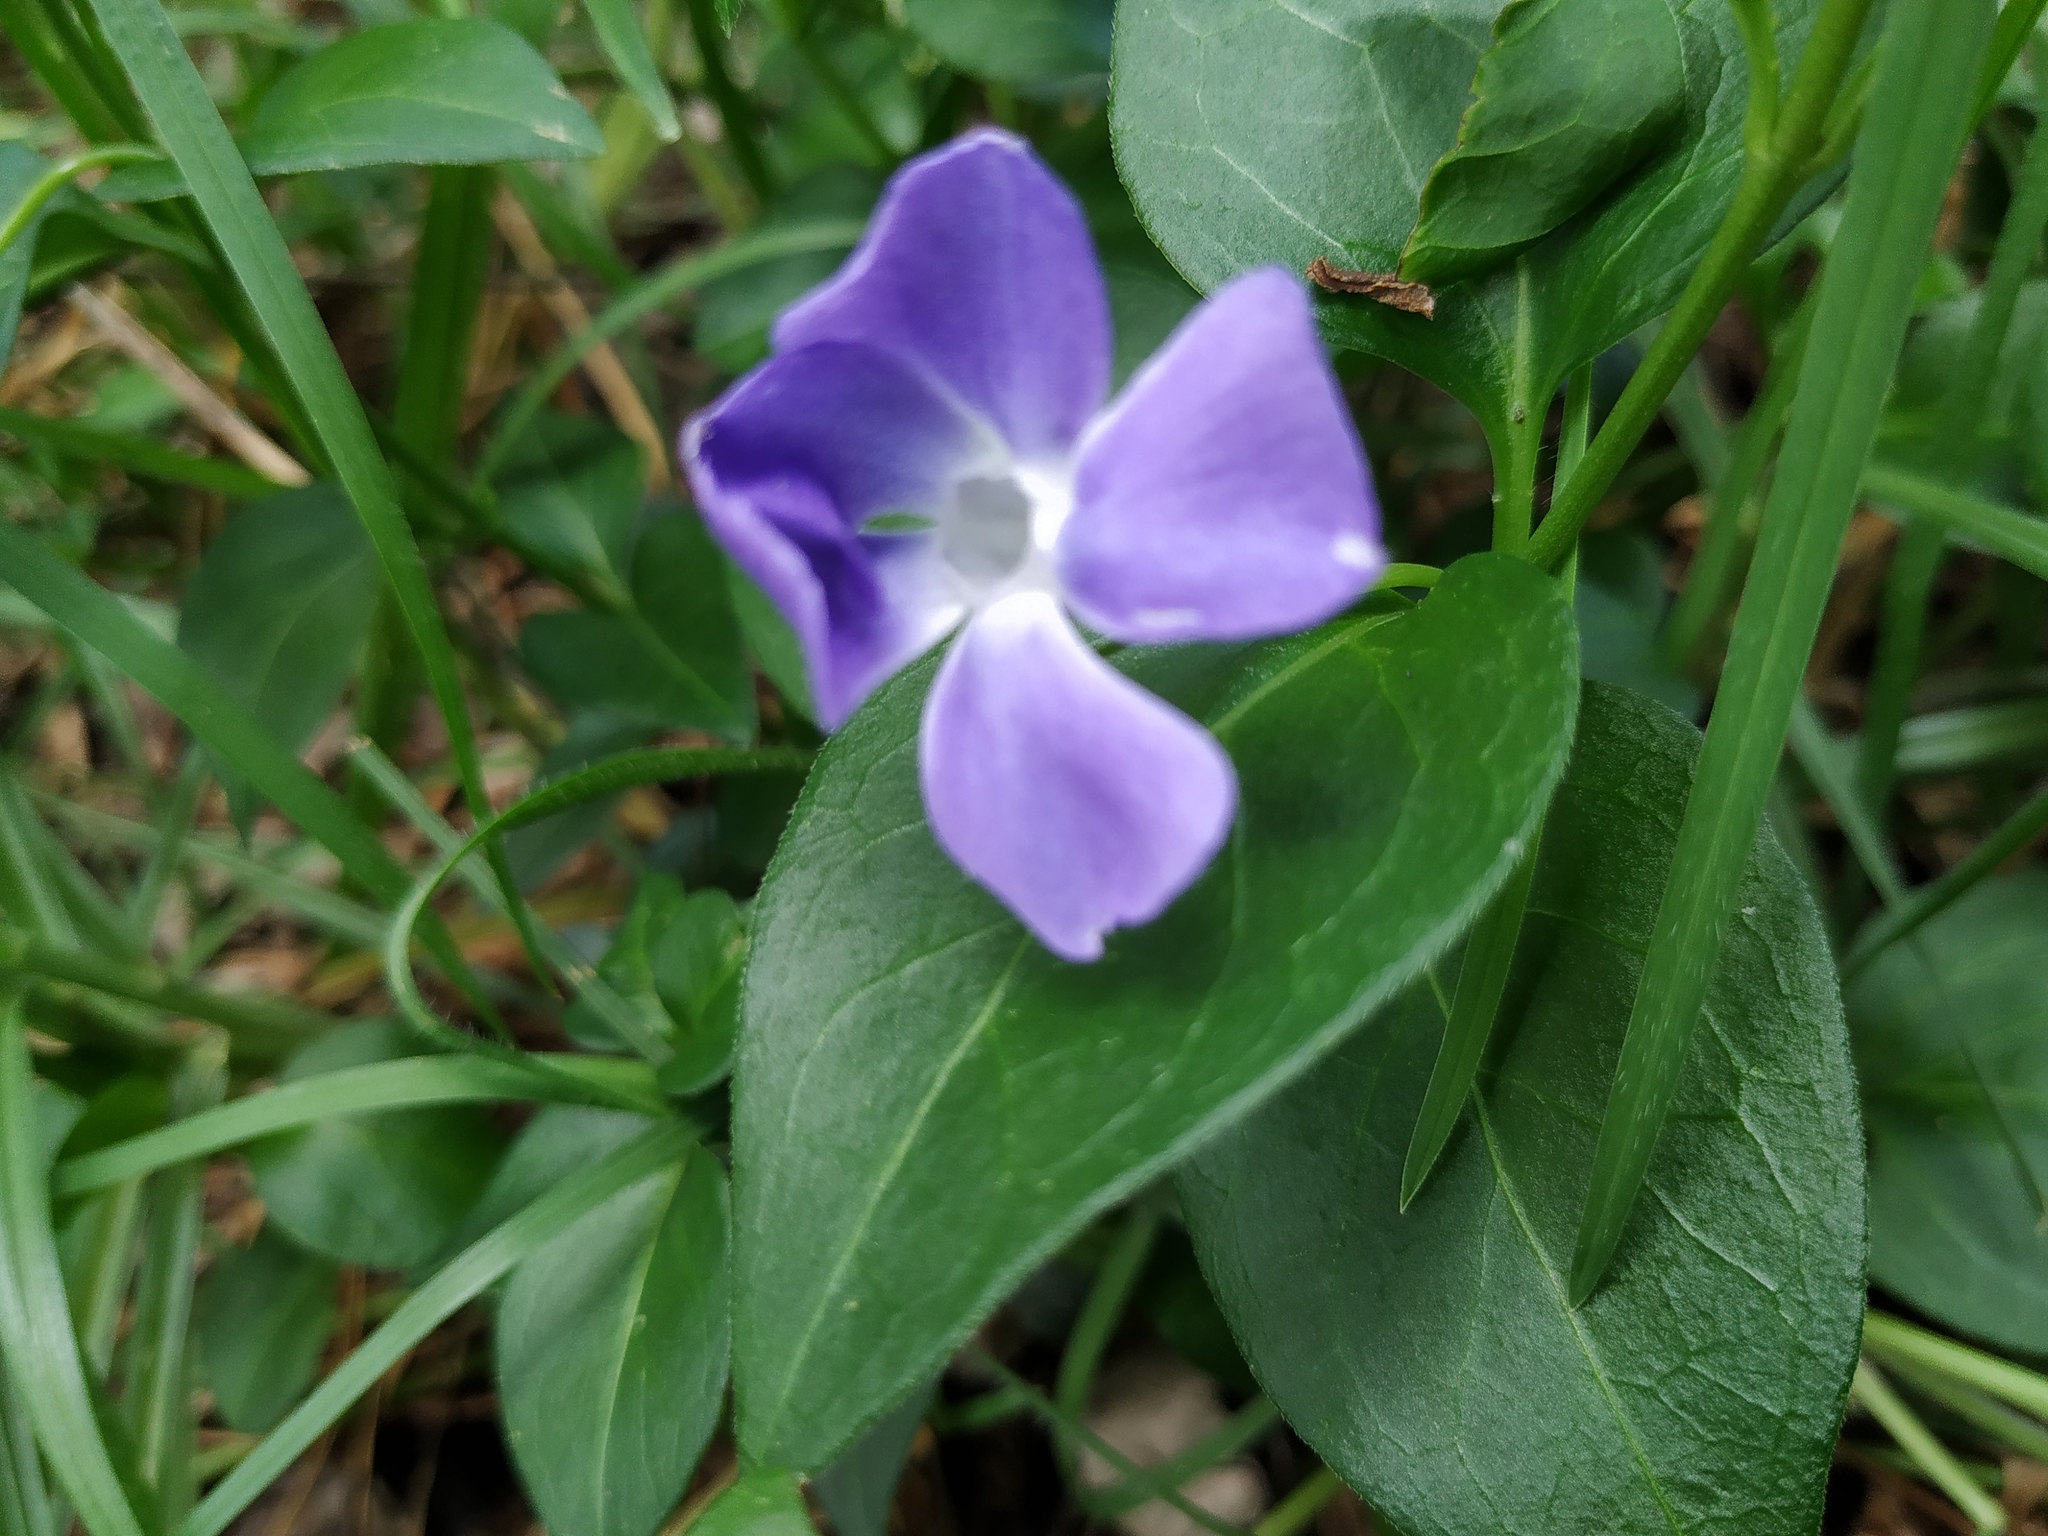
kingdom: Plantae
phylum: Tracheophyta
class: Magnoliopsida
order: Gentianales
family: Apocynaceae
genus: Vinca
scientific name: Vinca major
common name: Greater periwinkle
